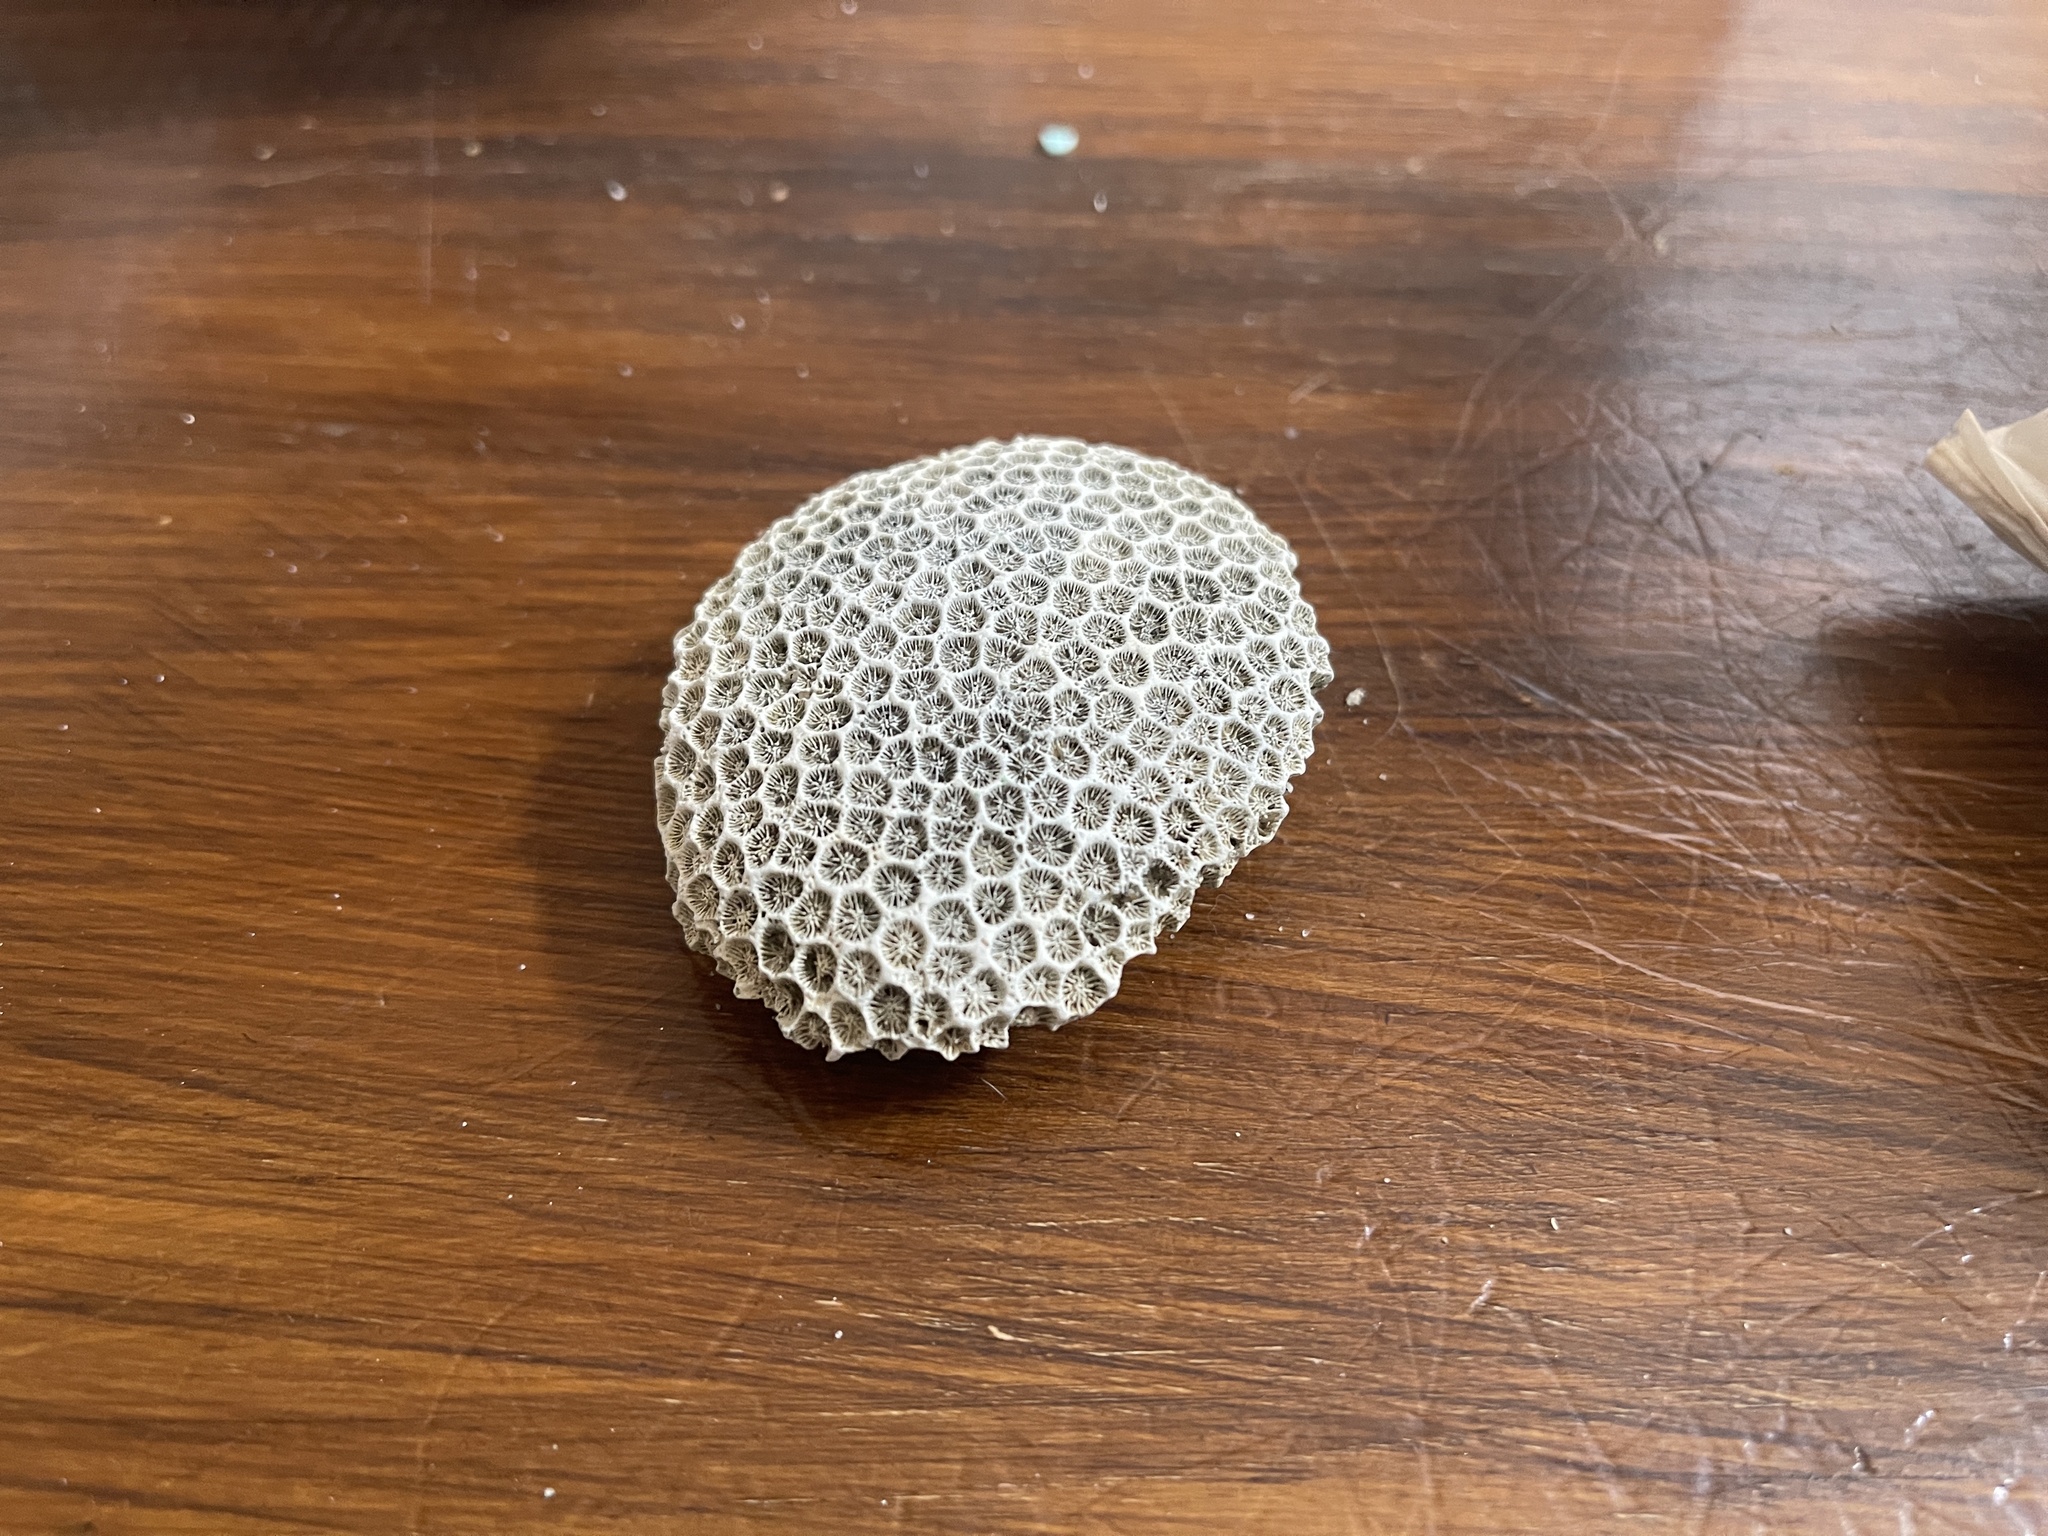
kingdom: Animalia
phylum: Cnidaria
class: Anthozoa
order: Scleractinia
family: Plesiastreidae
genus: Plesiastrea
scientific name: Plesiastrea versipora
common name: Small knob coral
